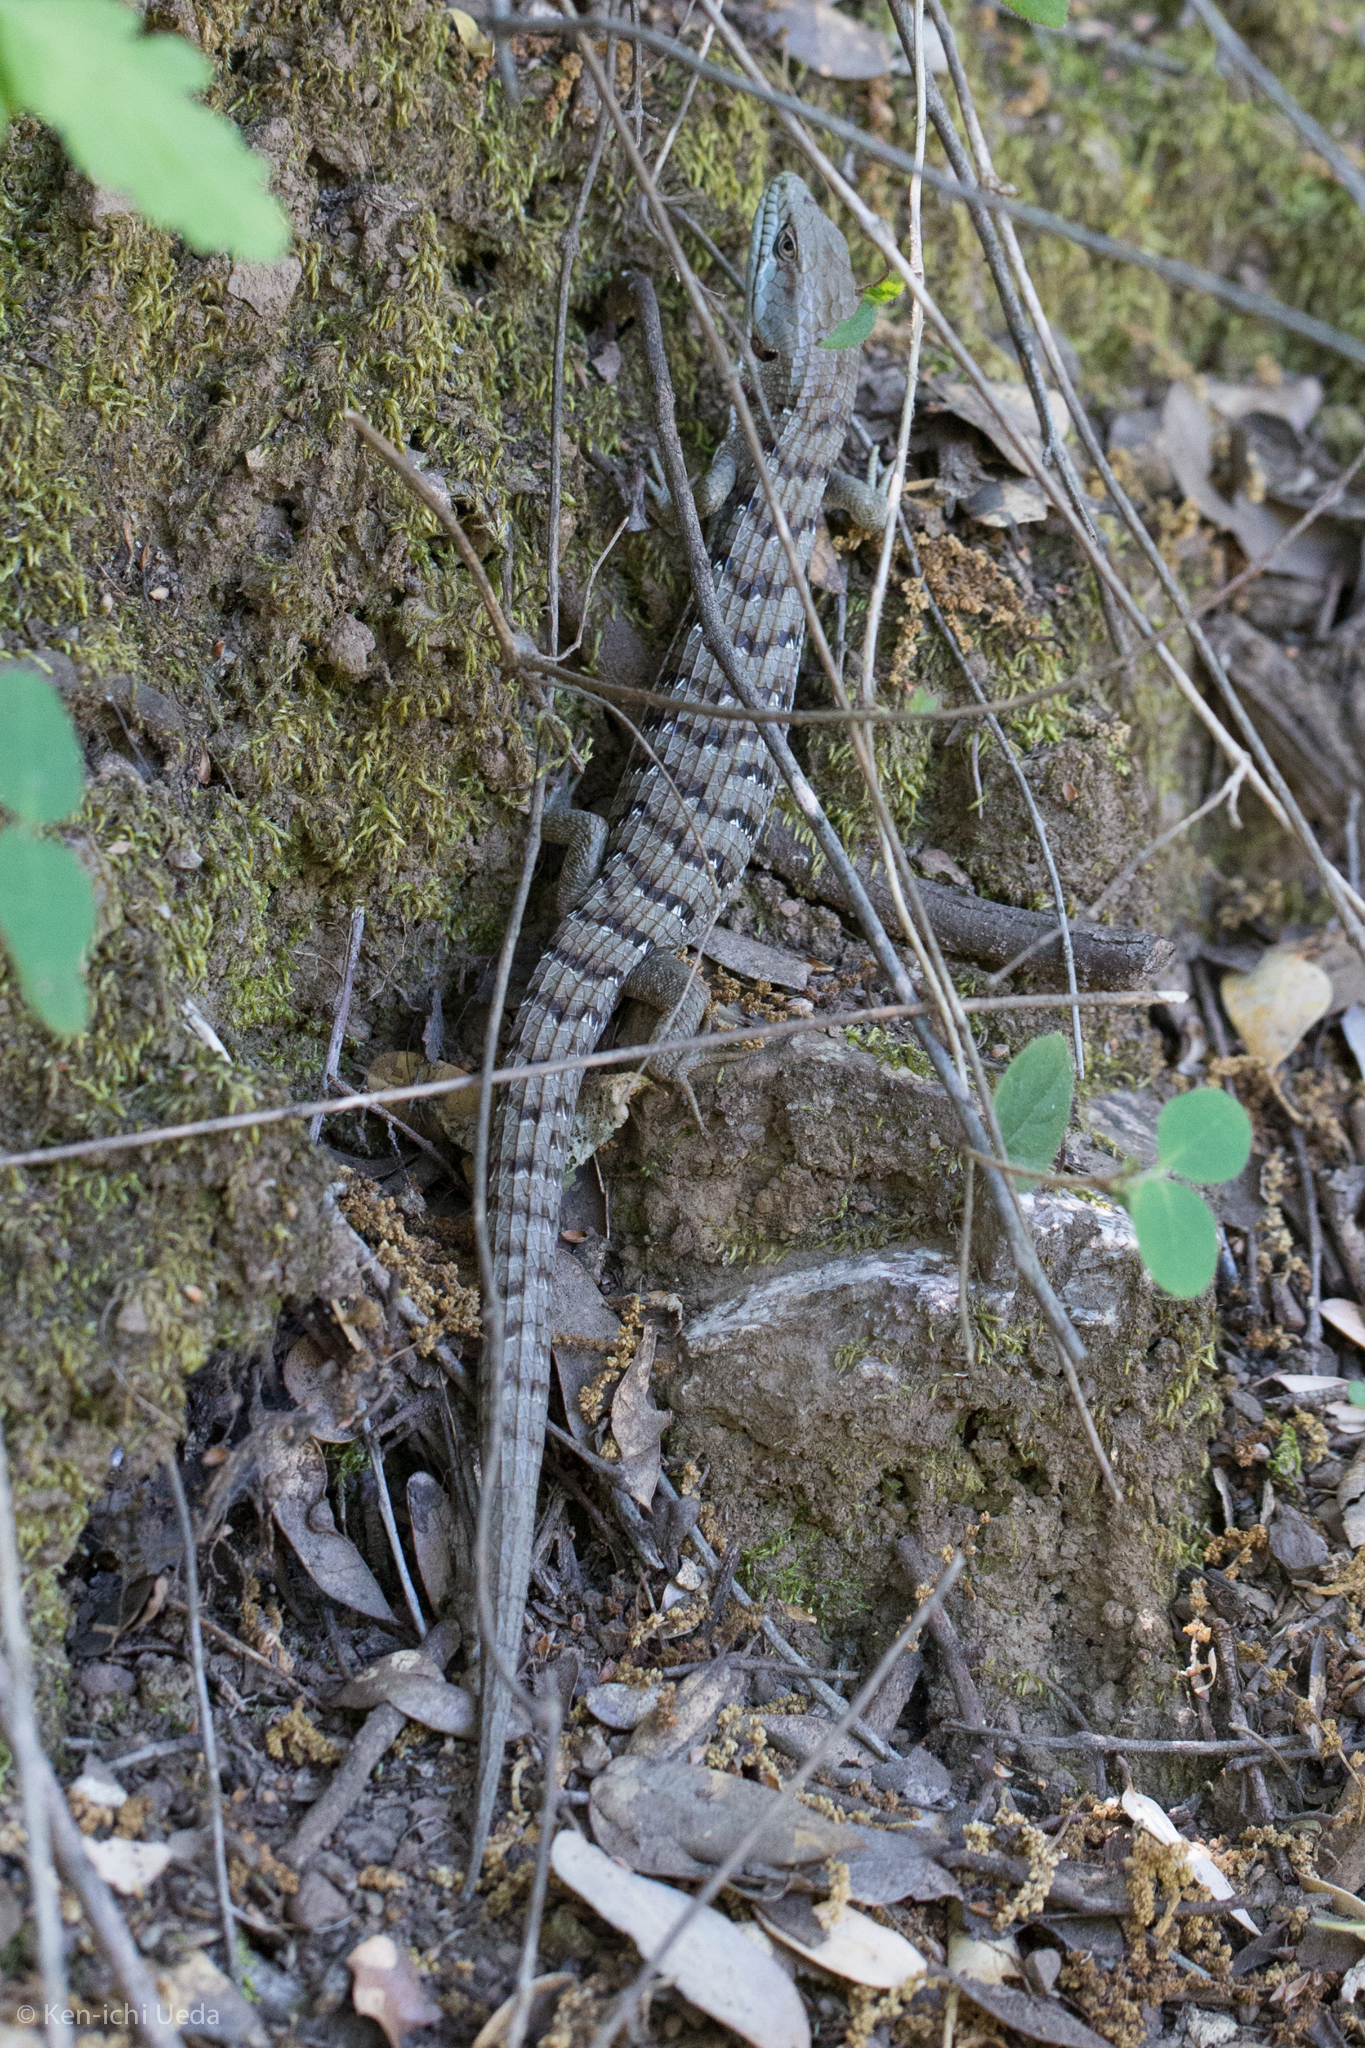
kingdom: Animalia
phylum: Chordata
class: Squamata
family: Anguidae
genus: Elgaria
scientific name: Elgaria multicarinata
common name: Southern alligator lizard
